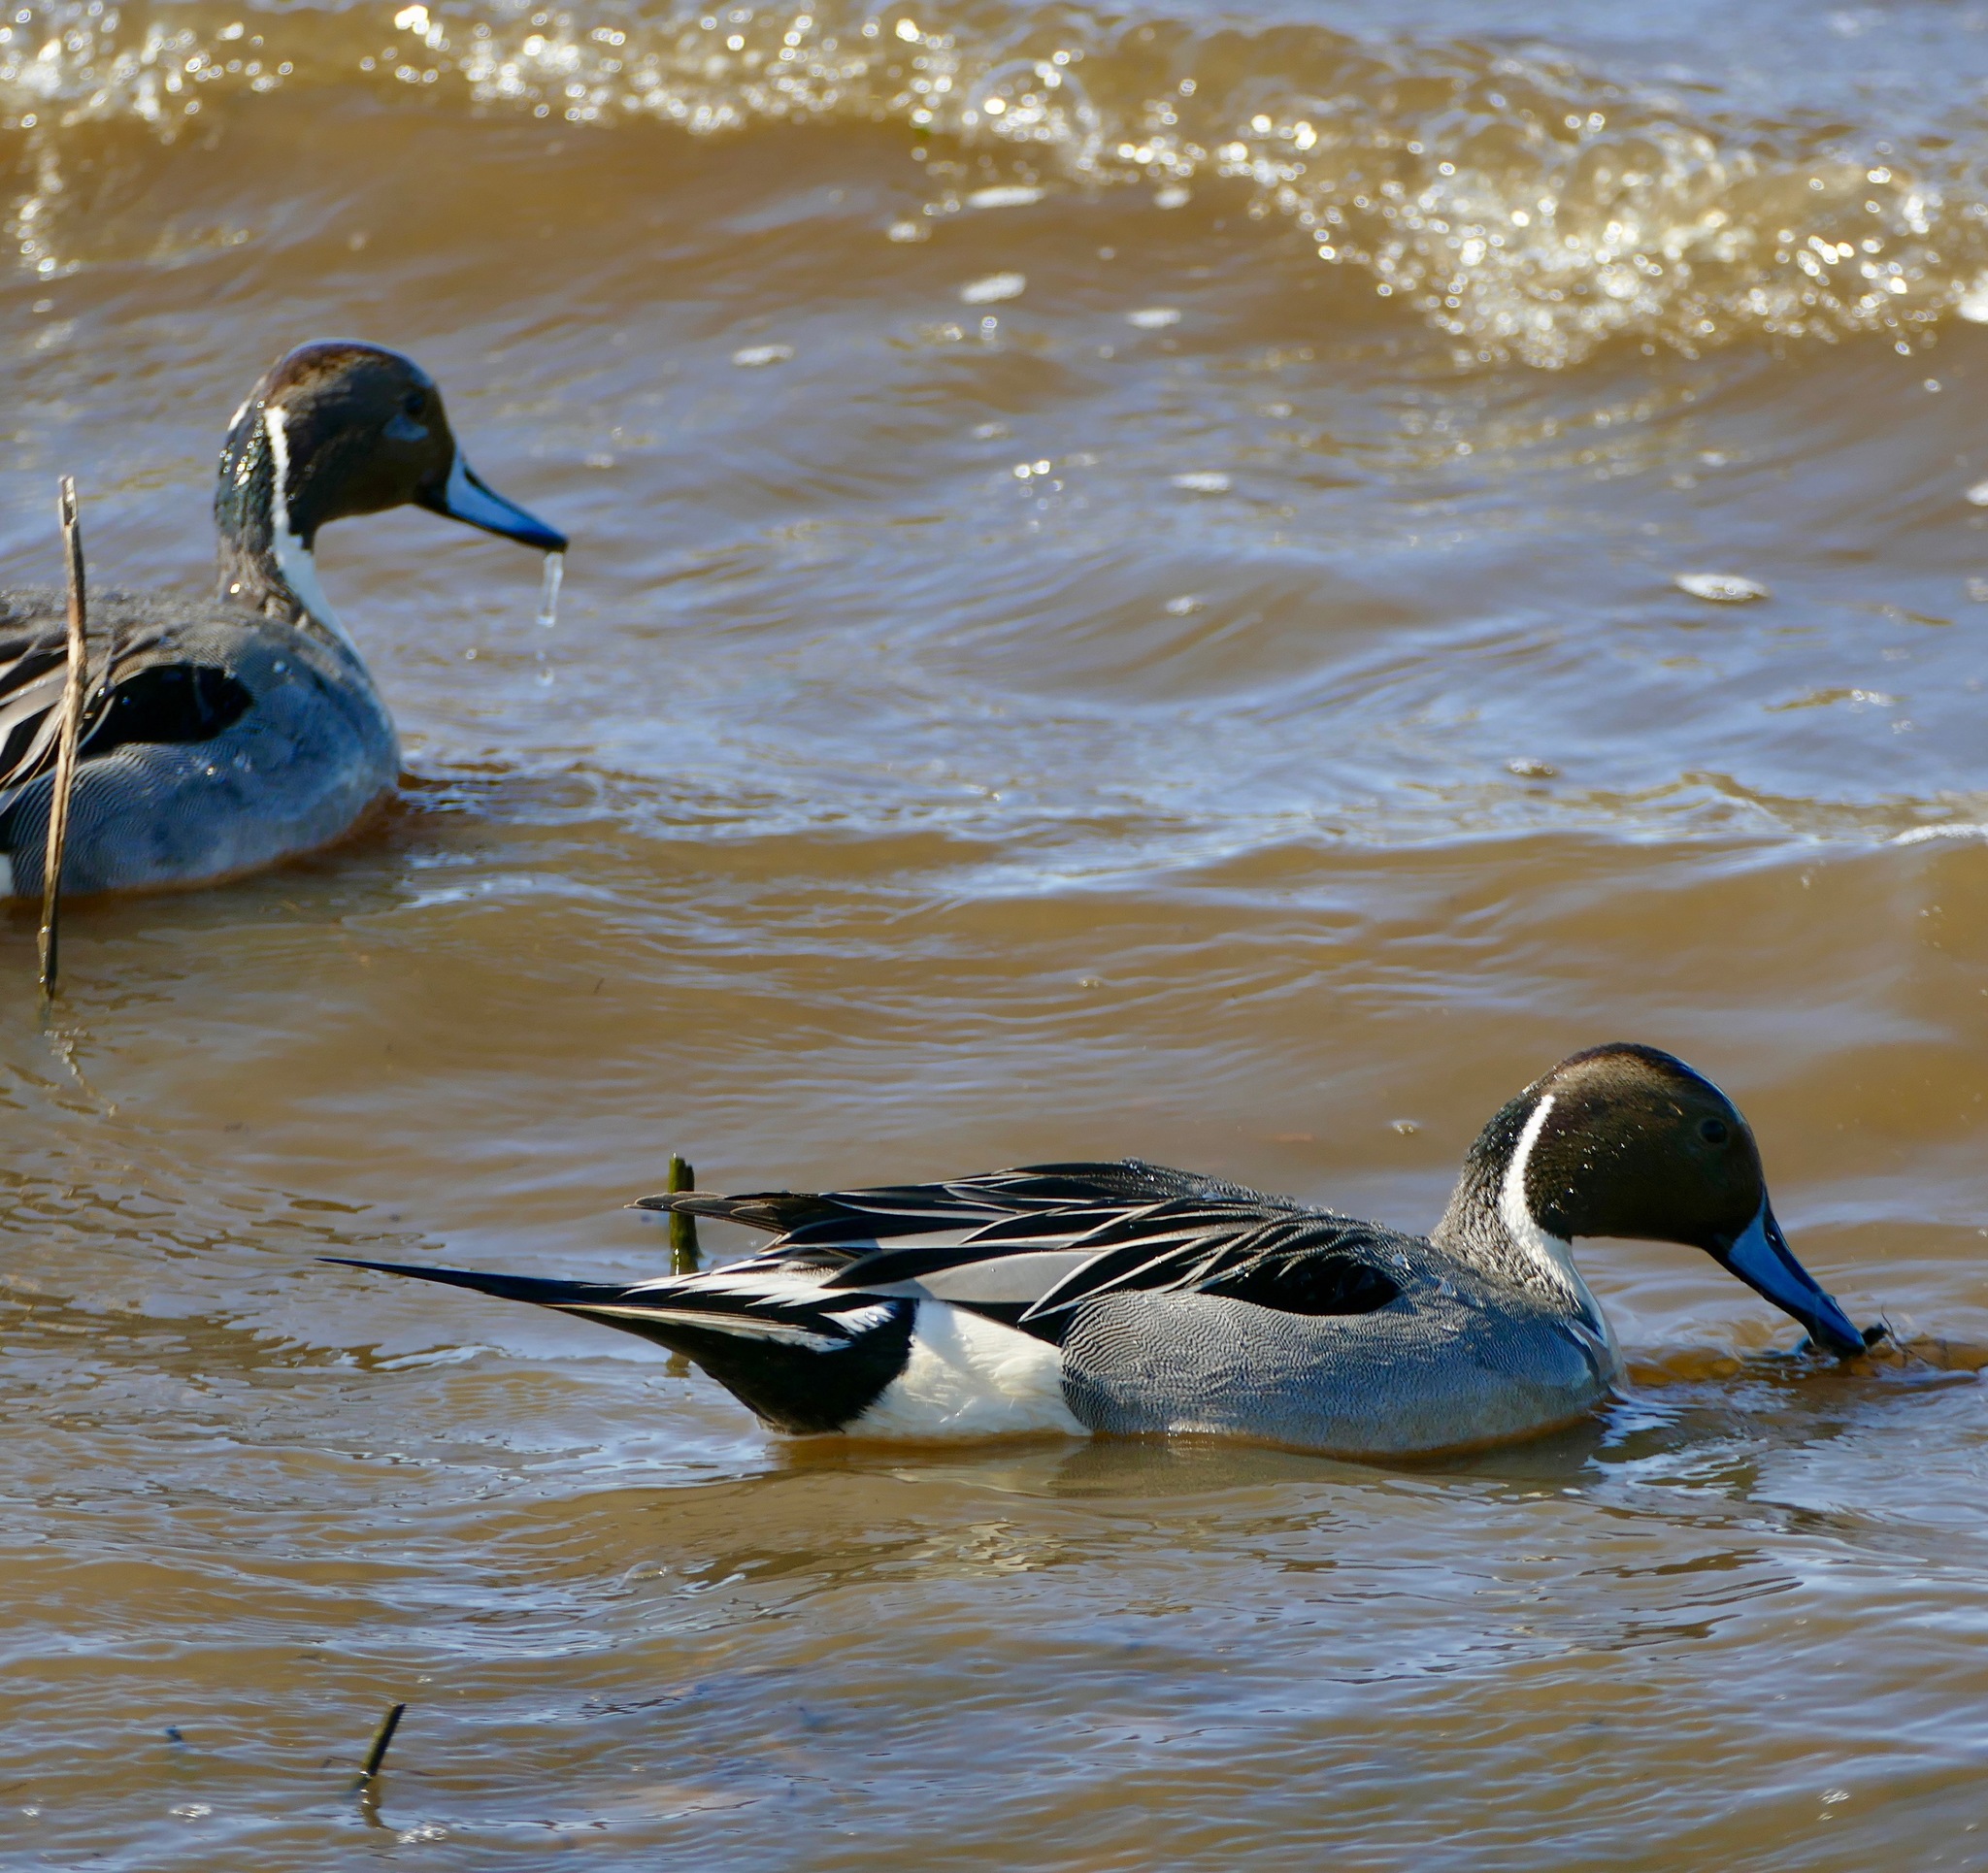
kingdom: Animalia
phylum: Chordata
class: Aves
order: Anseriformes
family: Anatidae
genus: Anas
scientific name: Anas acuta
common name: Northern pintail
